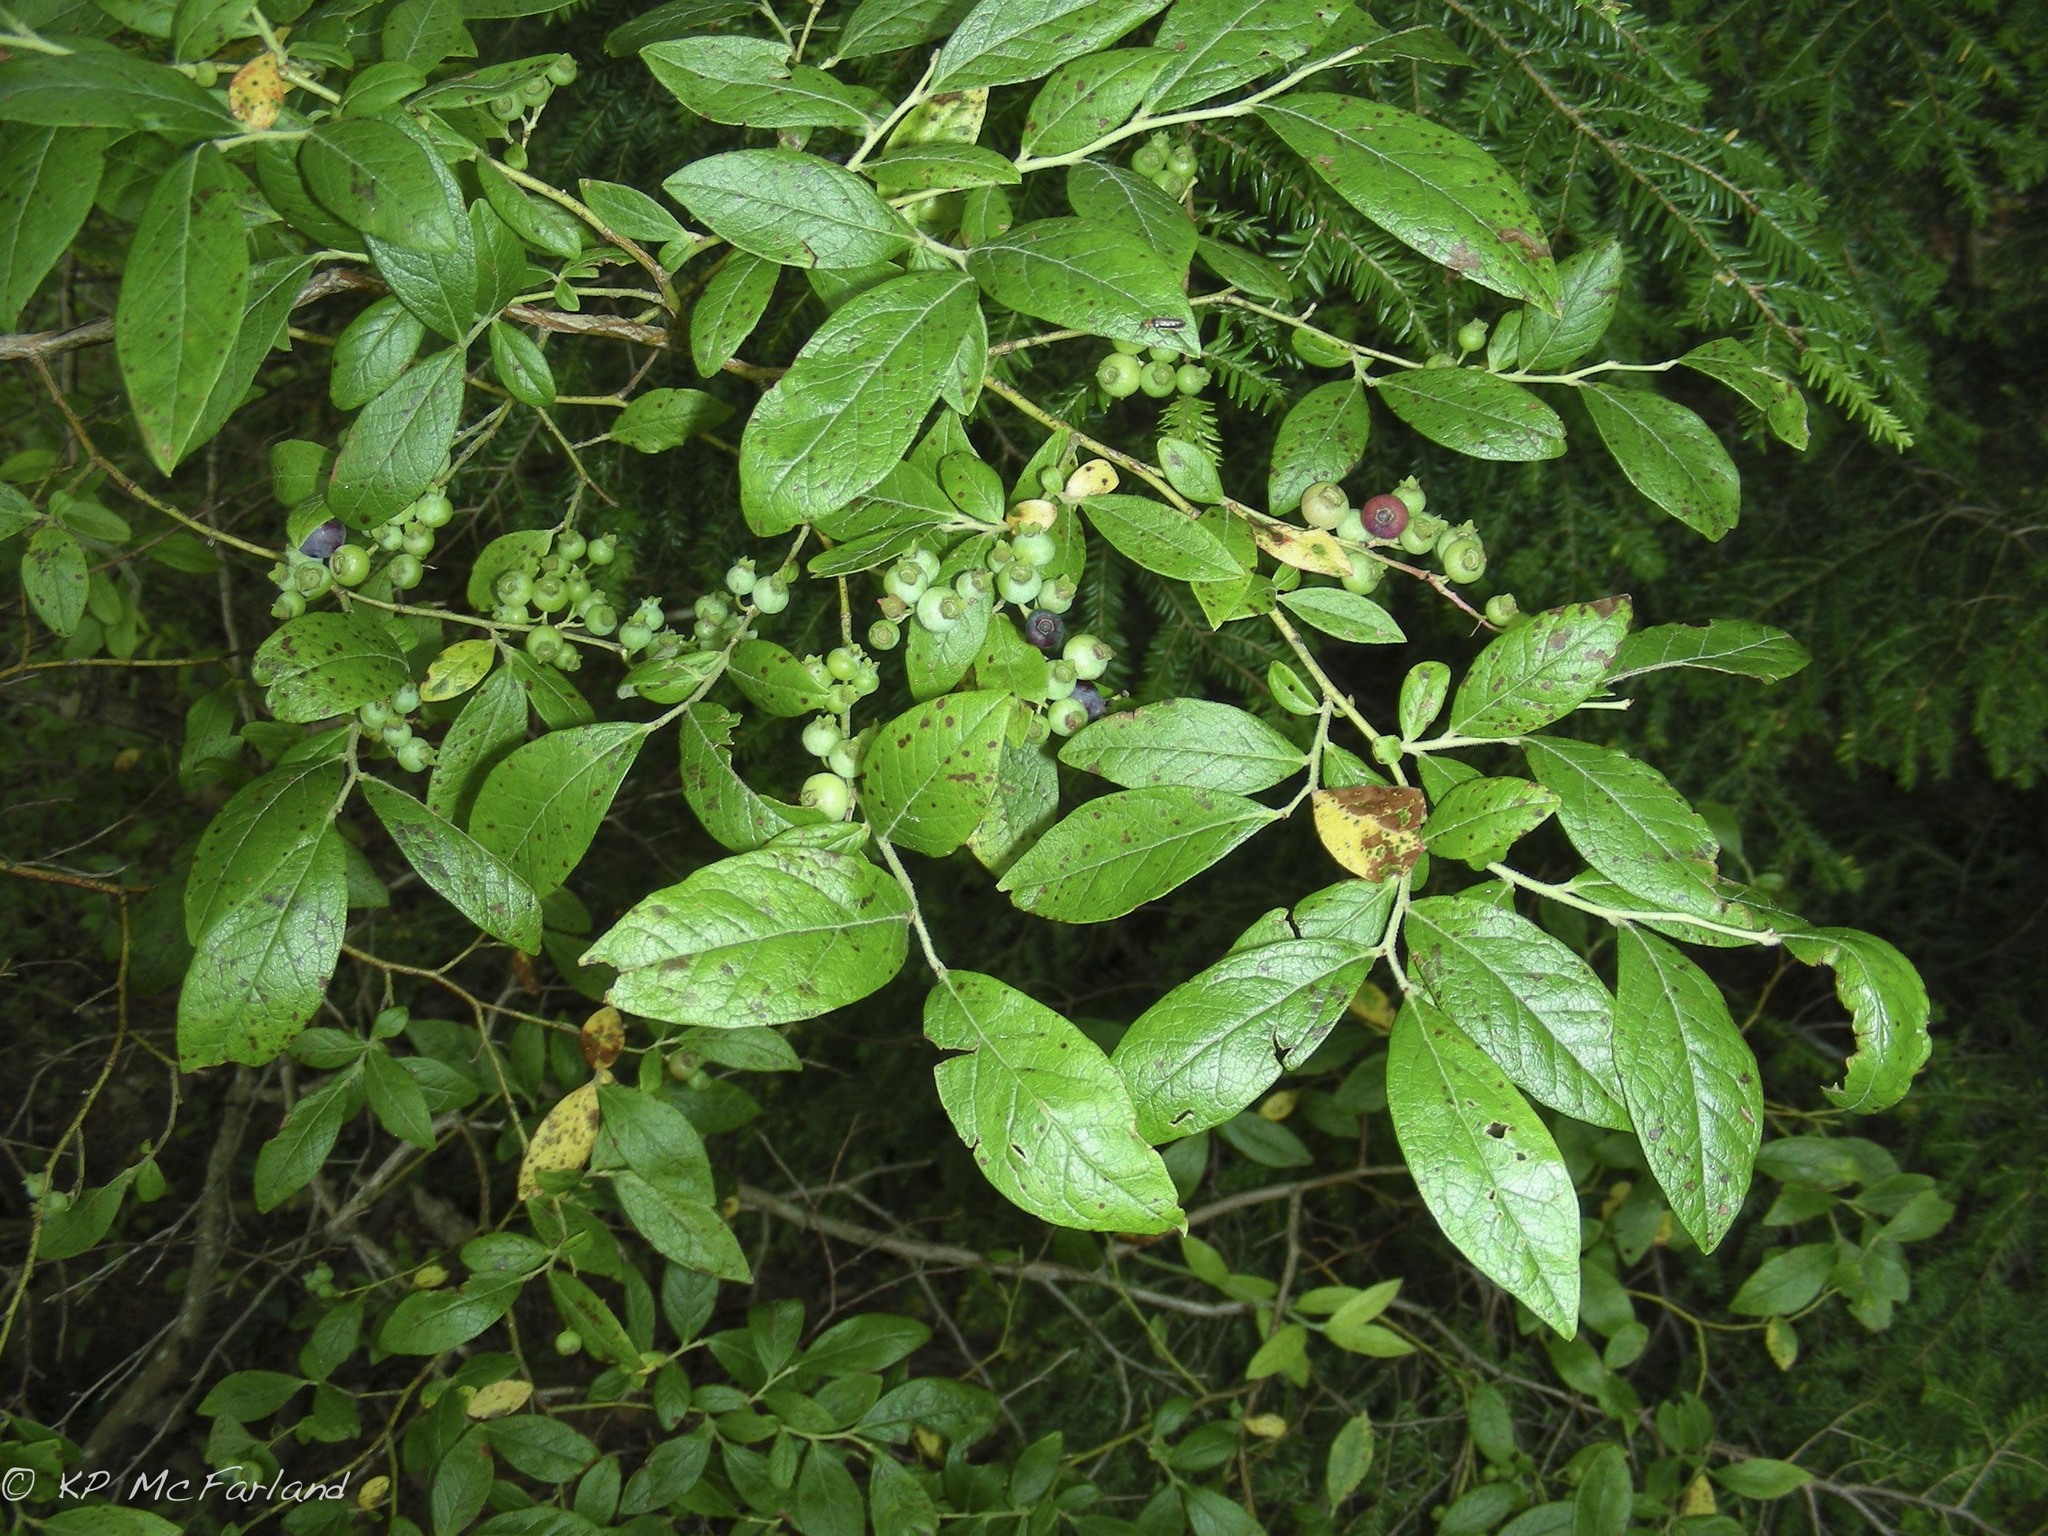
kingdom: Plantae
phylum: Tracheophyta
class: Magnoliopsida
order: Ericales
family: Ericaceae
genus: Vaccinium
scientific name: Vaccinium corymbosum
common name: Blueberry
